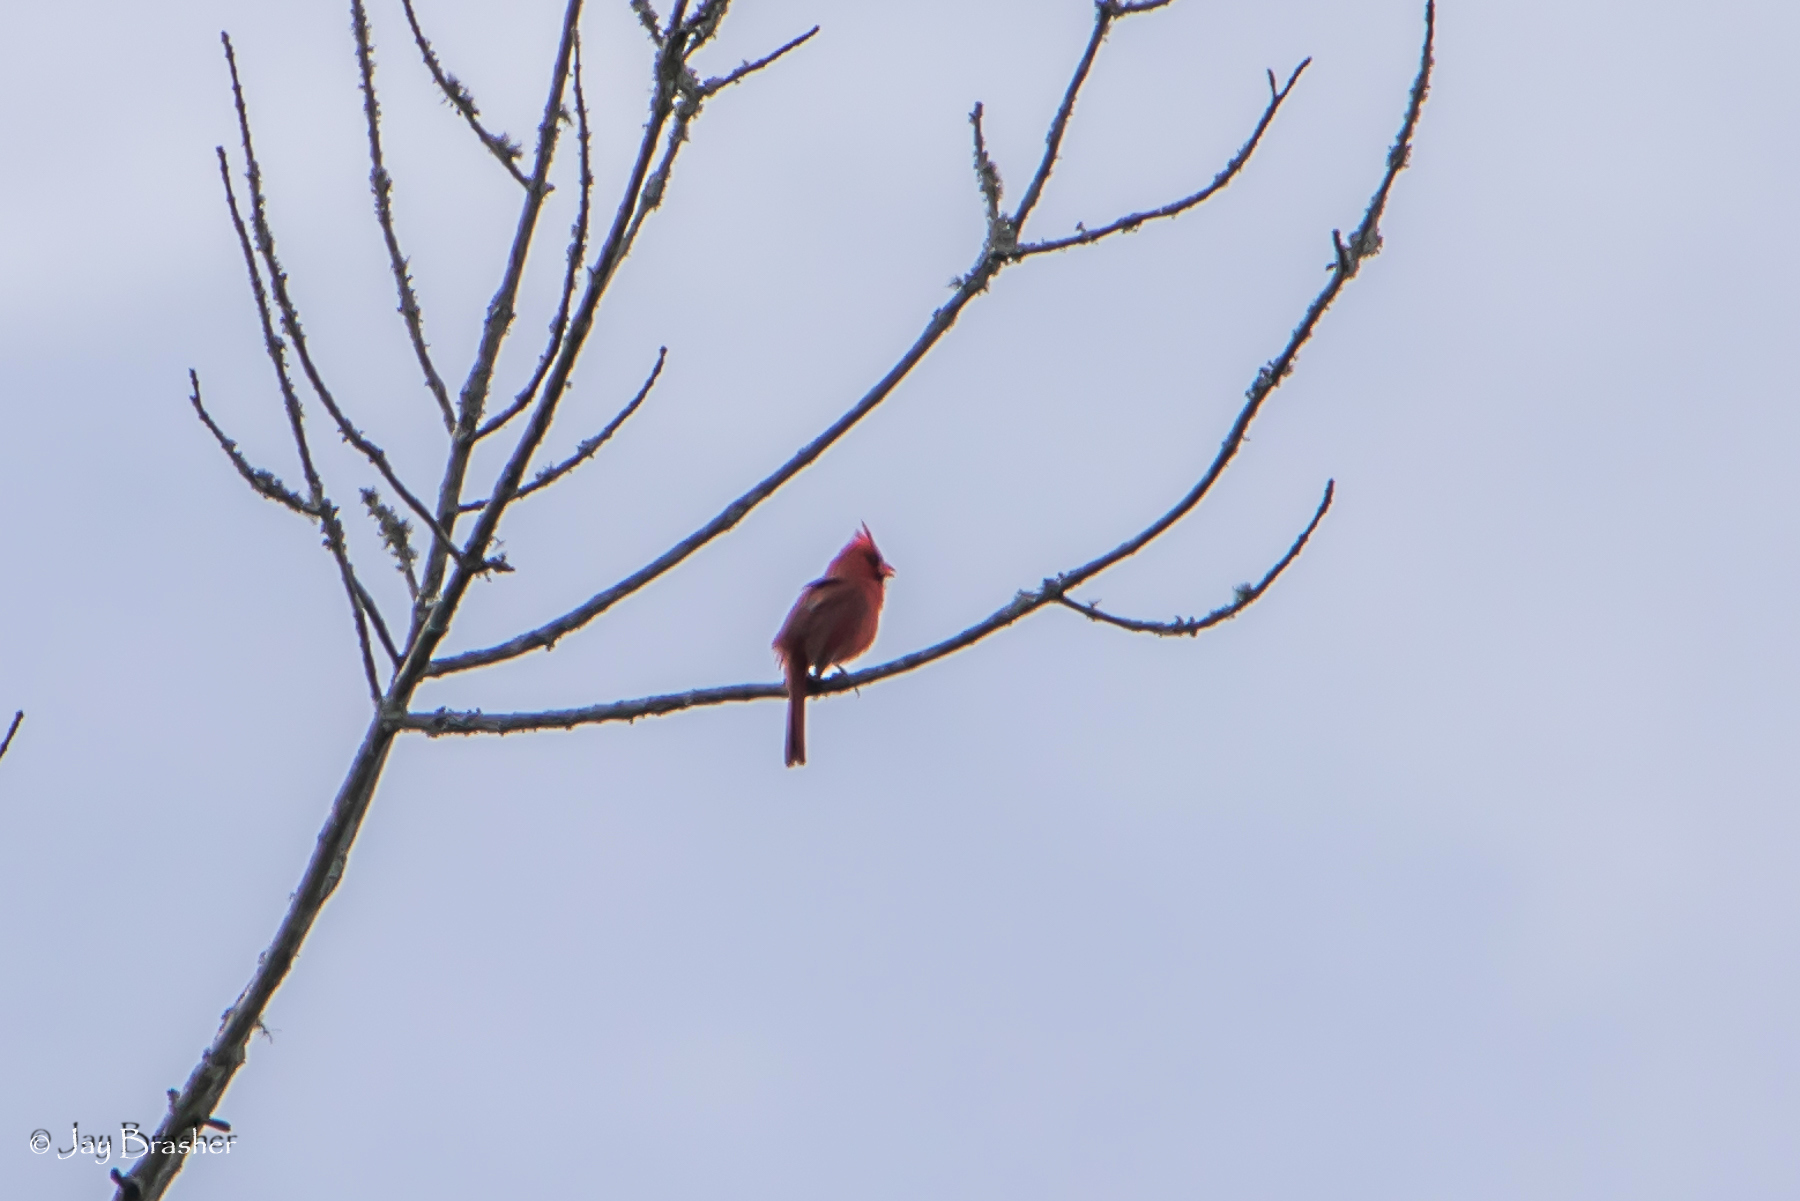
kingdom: Animalia
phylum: Chordata
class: Aves
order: Passeriformes
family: Cardinalidae
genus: Cardinalis
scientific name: Cardinalis cardinalis
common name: Northern cardinal
